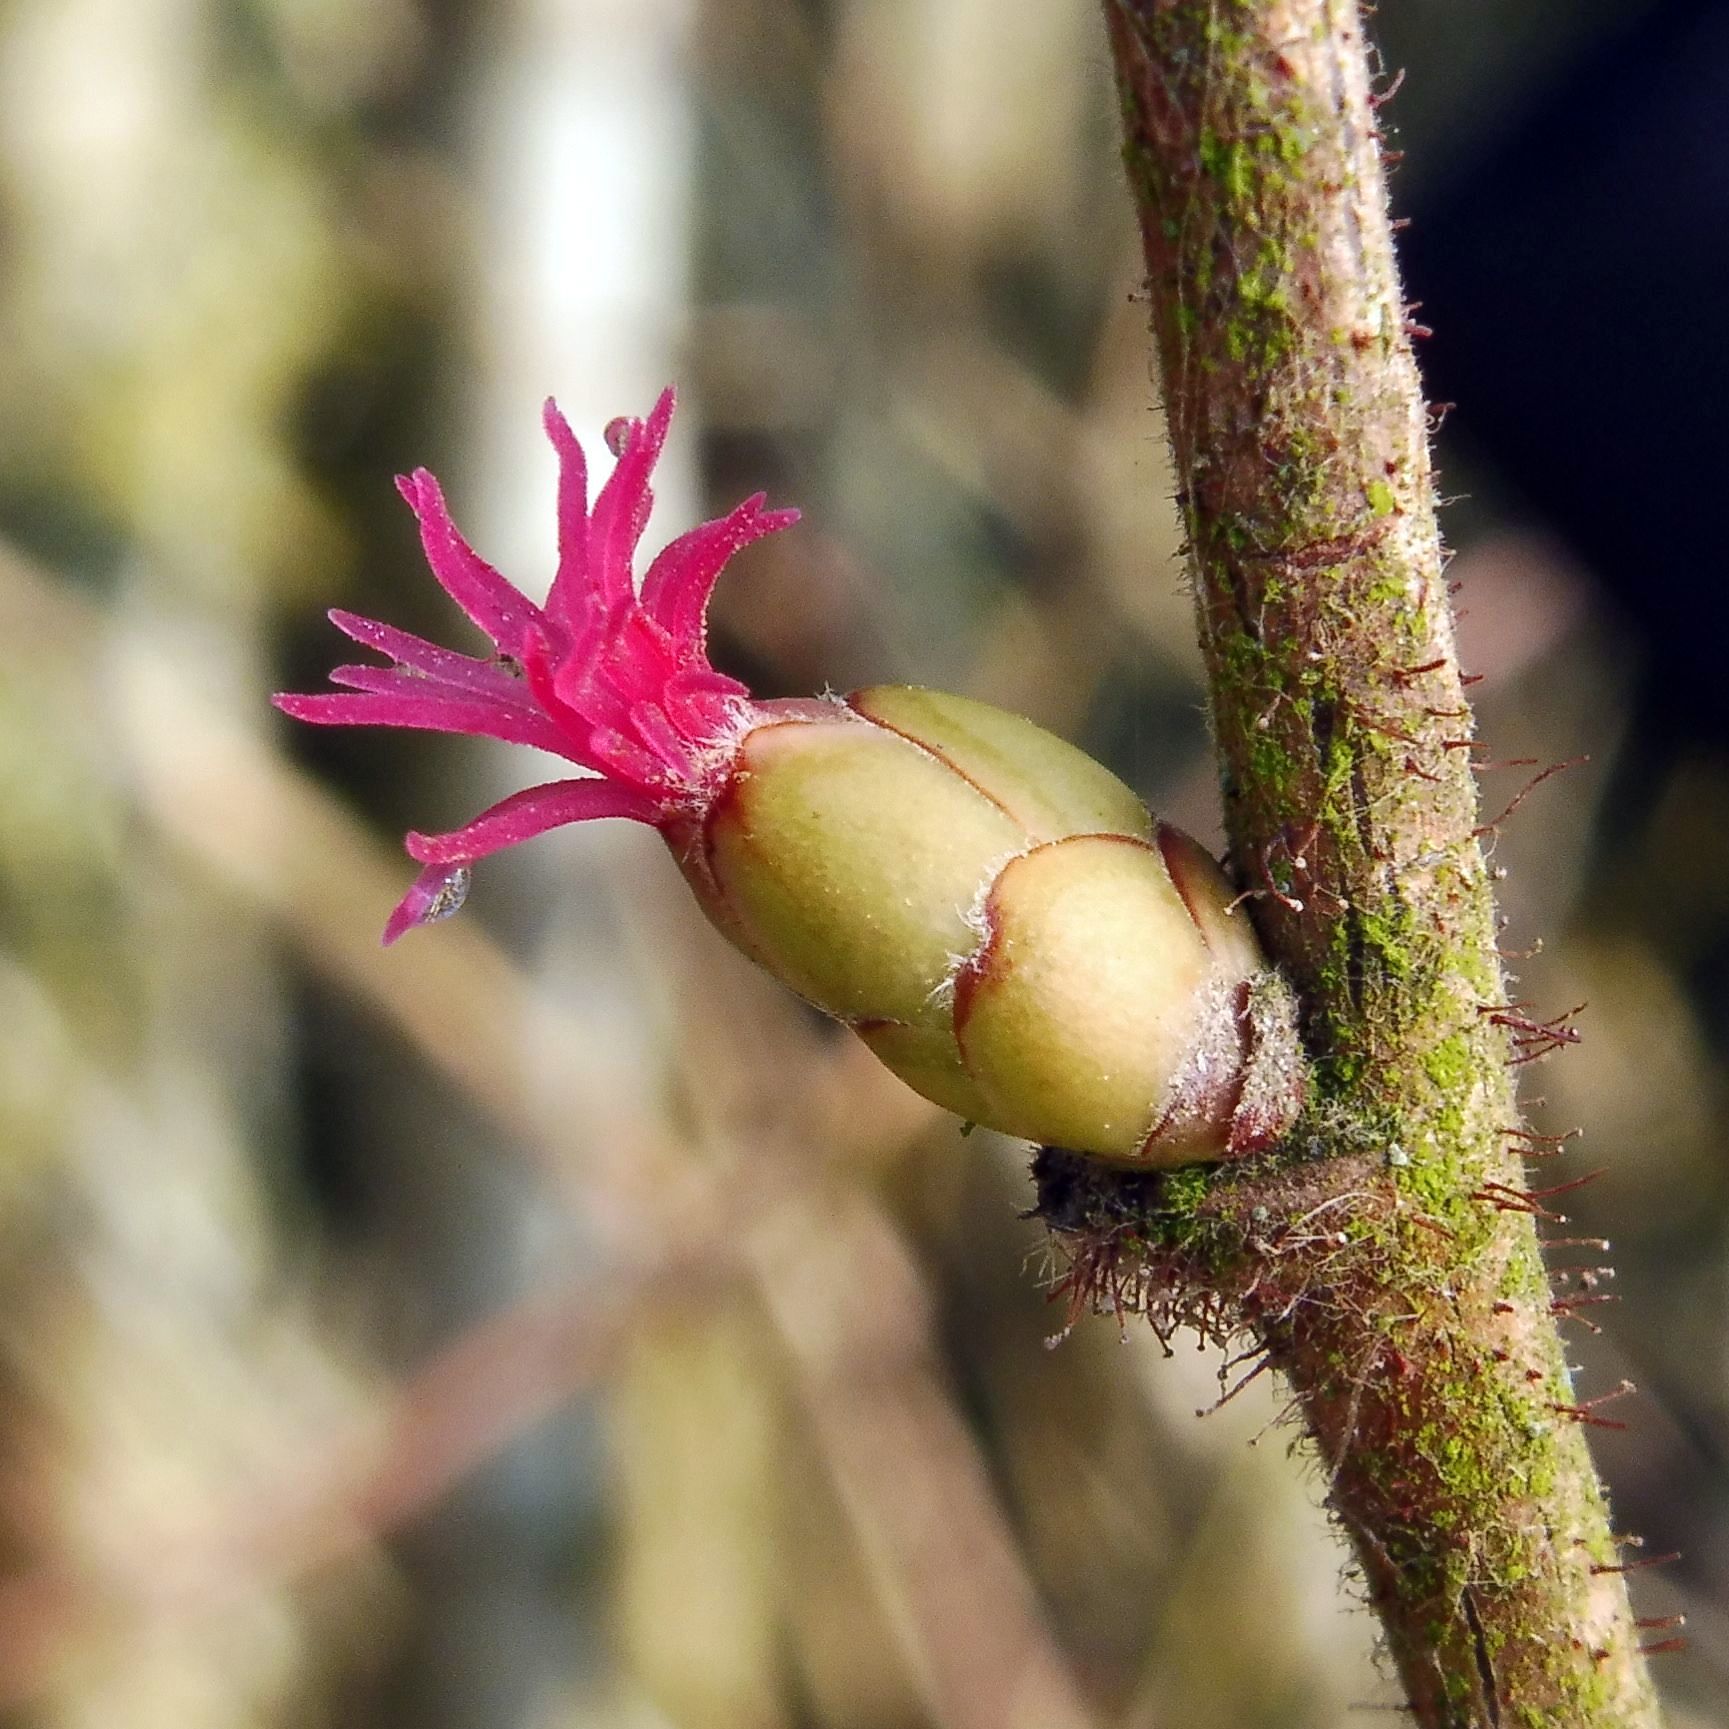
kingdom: Plantae
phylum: Tracheophyta
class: Magnoliopsida
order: Fagales
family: Betulaceae
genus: Corylus
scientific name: Corylus avellana
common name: European hazel
